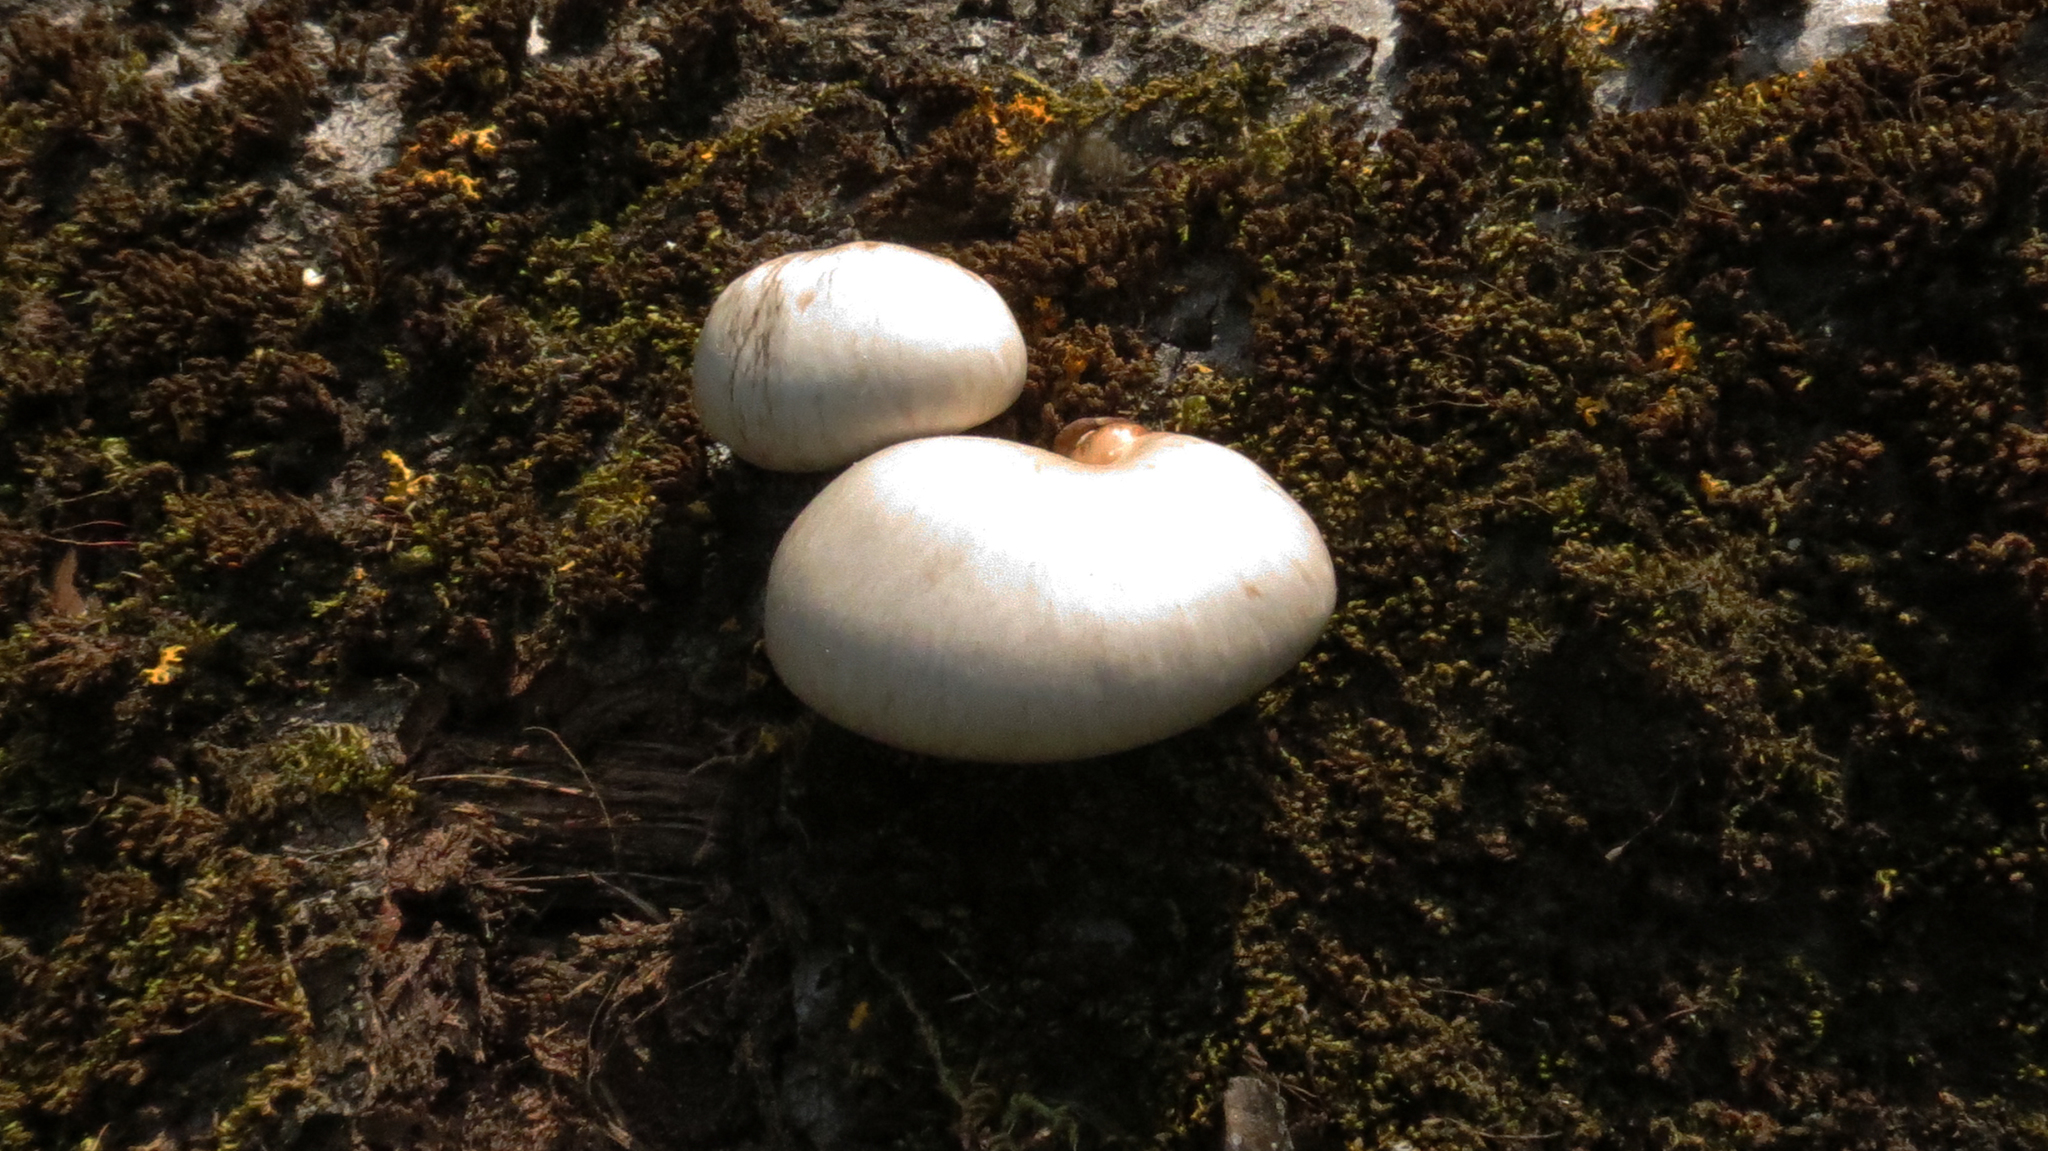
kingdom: Fungi
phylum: Basidiomycota
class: Agaricomycetes
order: Agaricales
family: Pleurotaceae
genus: Pleurotus
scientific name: Pleurotus calyptratus
